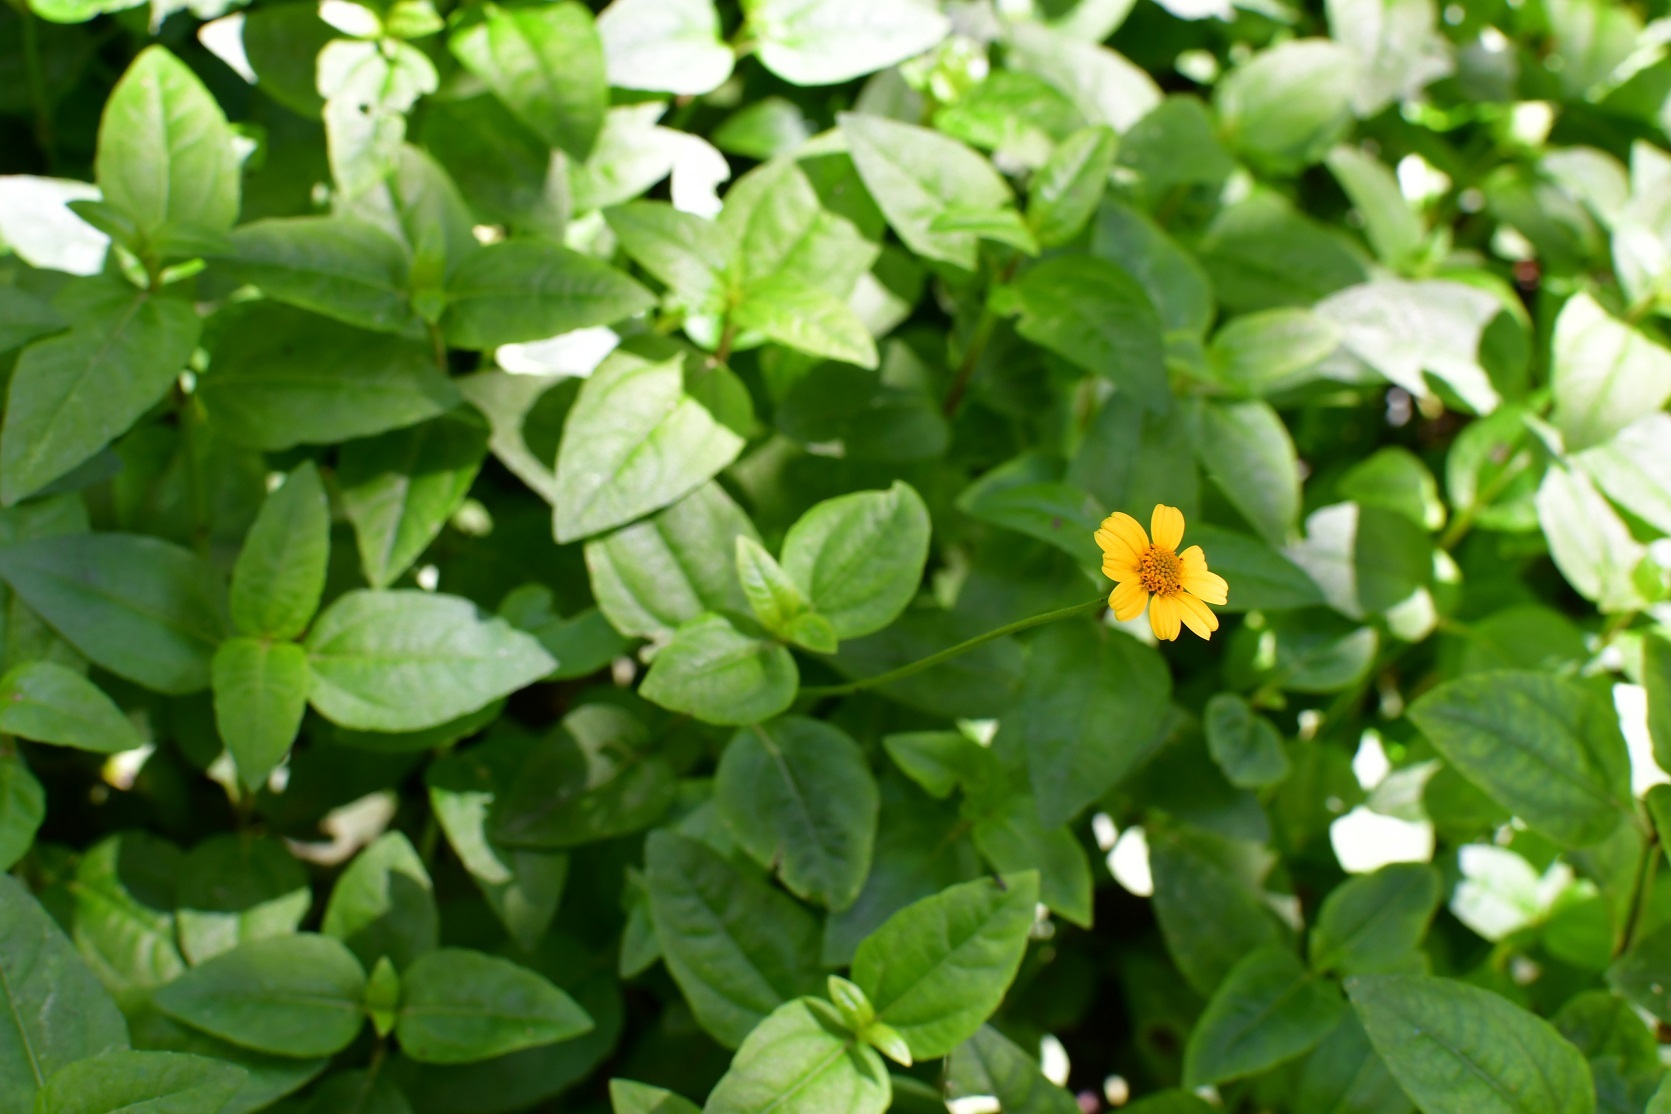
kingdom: Plantae
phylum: Tracheophyta
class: Magnoliopsida
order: Asterales
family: Asteraceae
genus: Acmella
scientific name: Acmella repens
